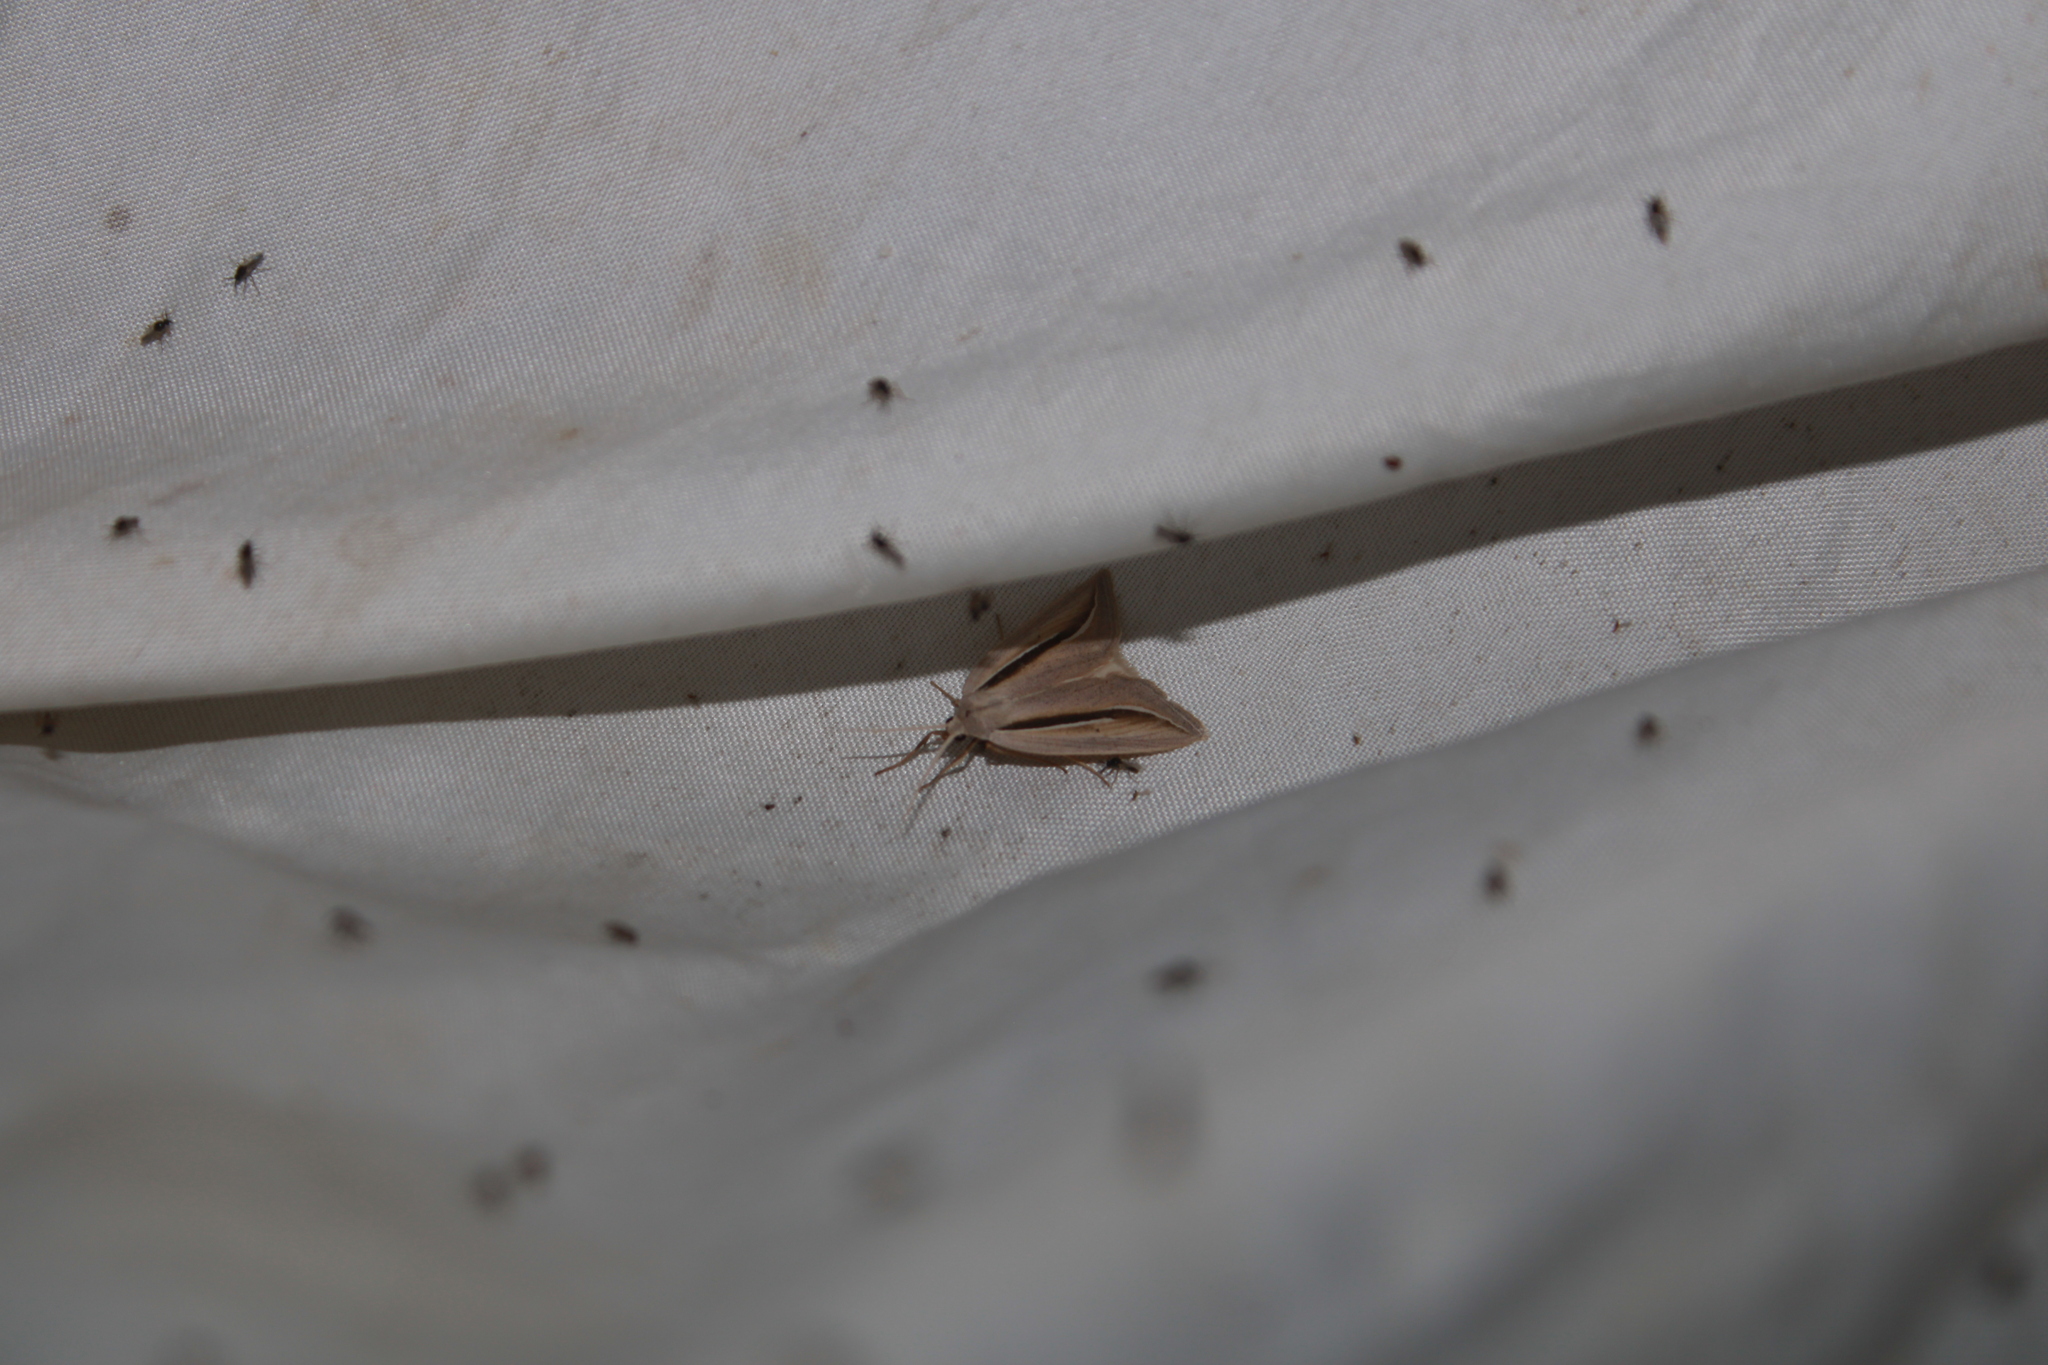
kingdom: Animalia
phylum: Arthropoda
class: Insecta
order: Lepidoptera
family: Erebidae
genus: Doryodes
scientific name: Doryodes spadaria
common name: Dull doryodes moth
